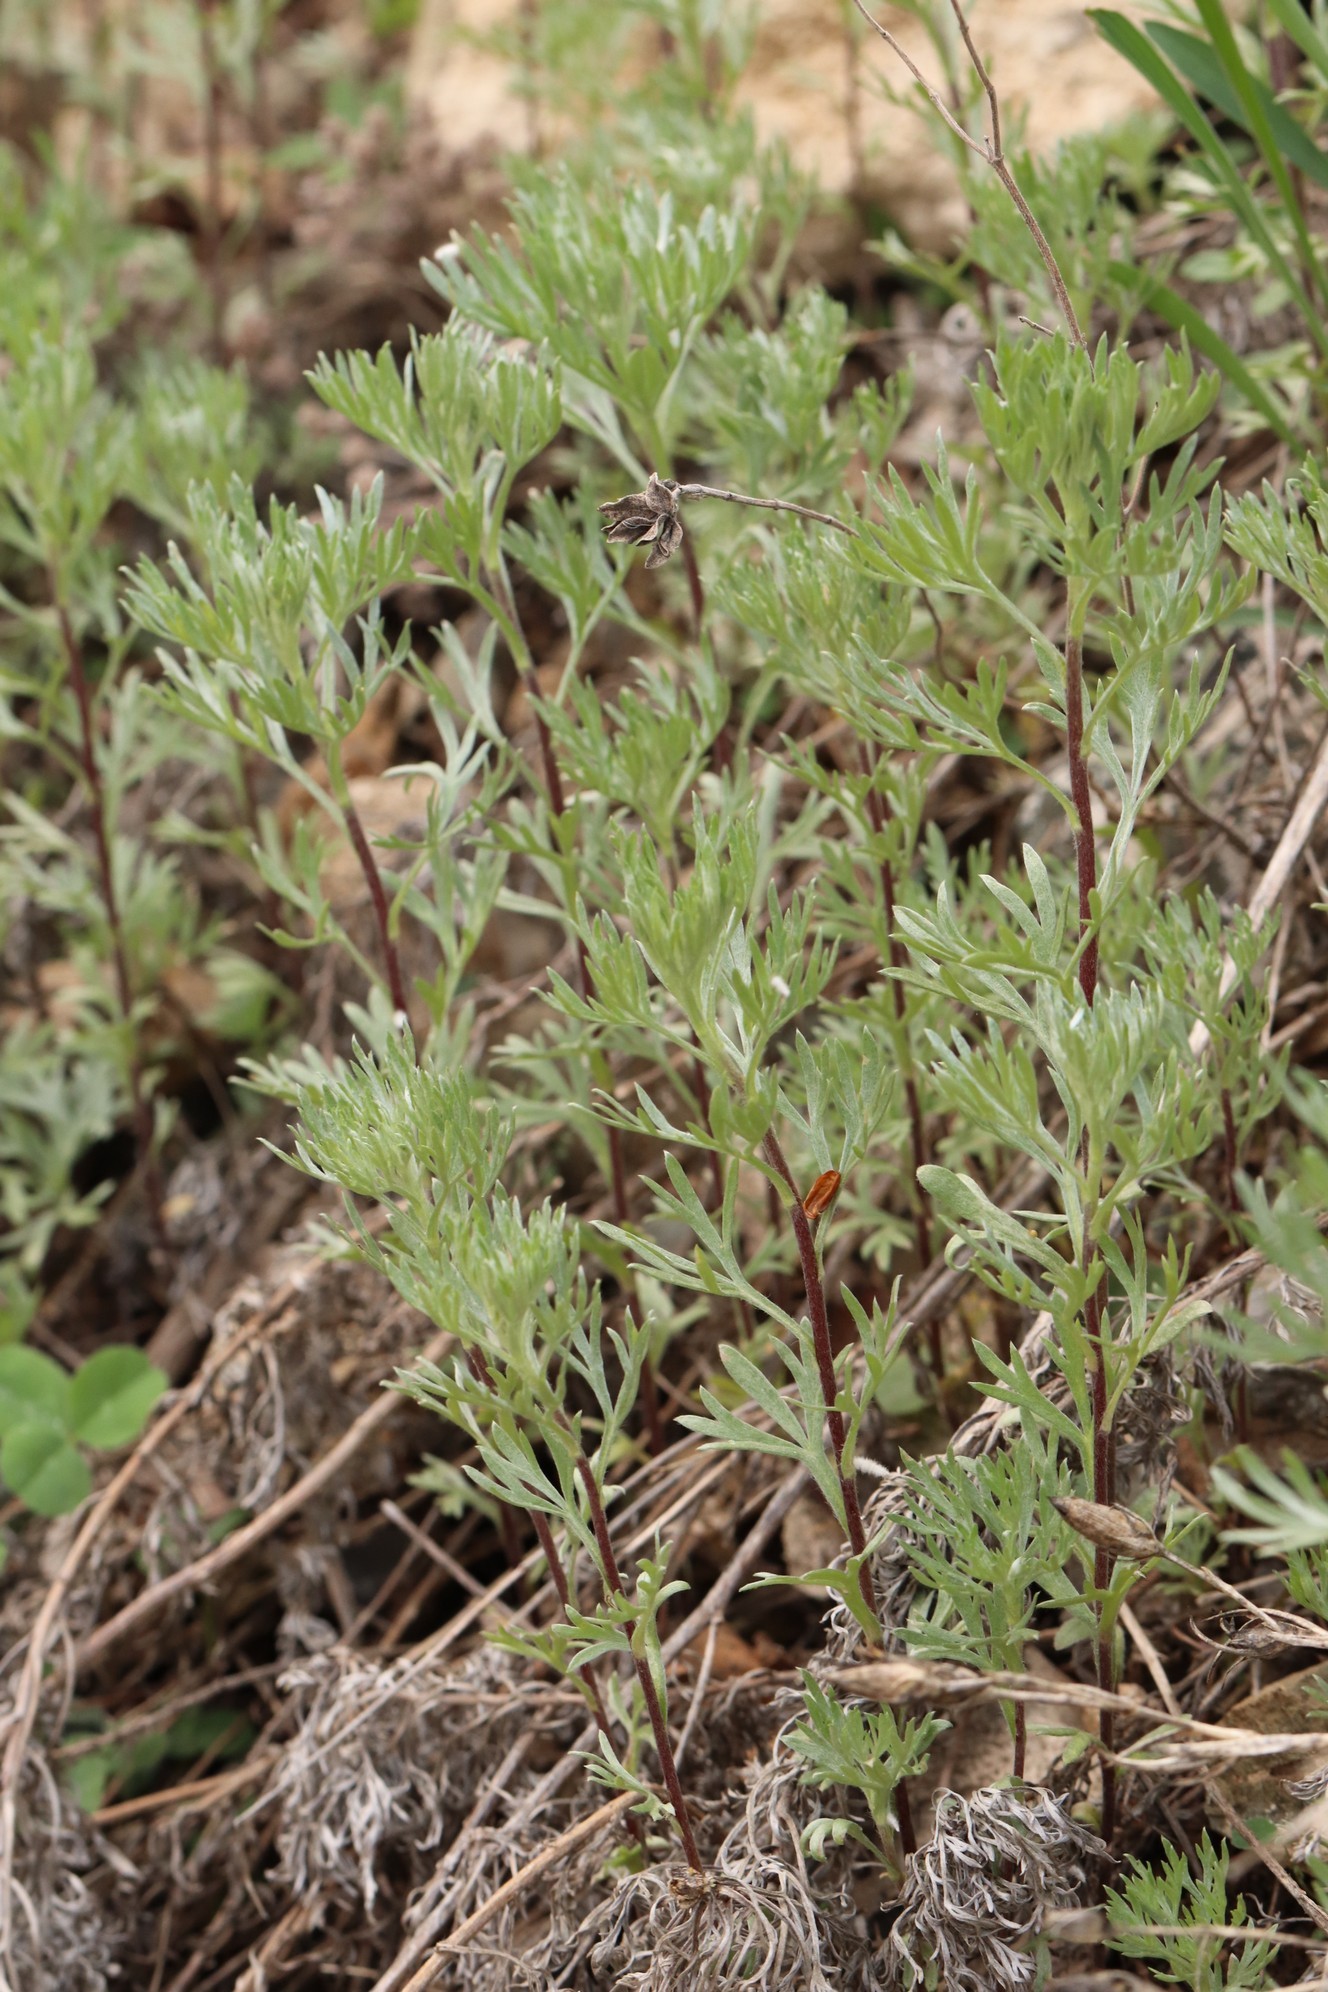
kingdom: Plantae
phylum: Tracheophyta
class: Magnoliopsida
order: Asterales
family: Asteraceae
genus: Artemisia
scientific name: Artemisia sericea
